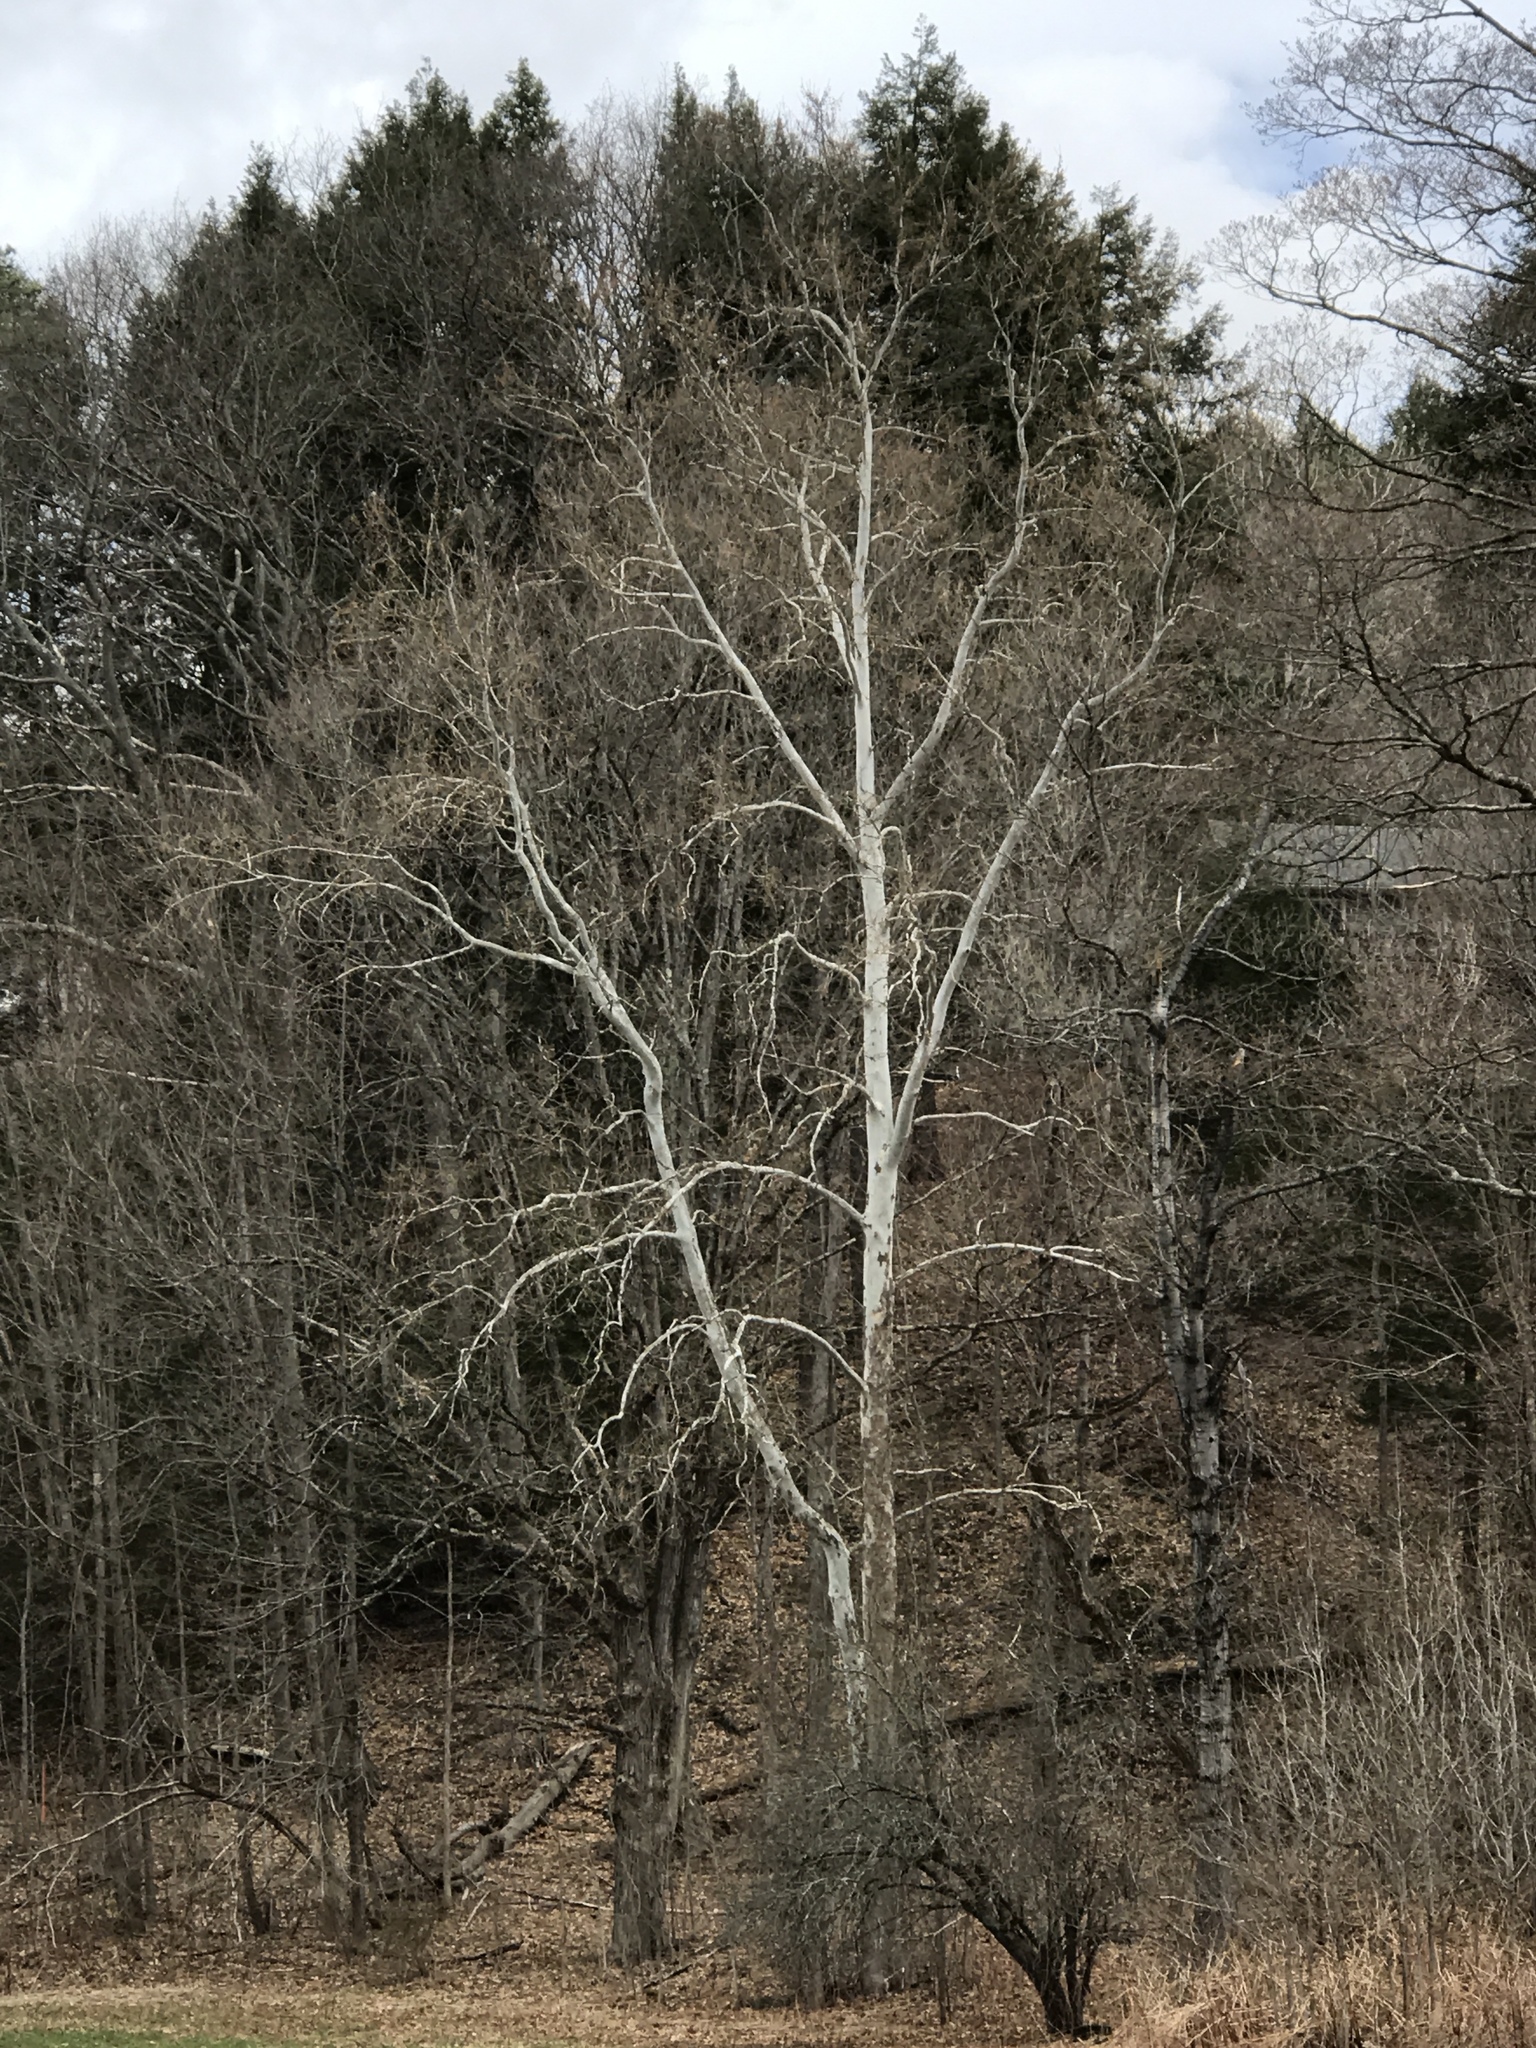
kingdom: Plantae
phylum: Tracheophyta
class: Magnoliopsida
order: Proteales
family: Platanaceae
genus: Platanus
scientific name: Platanus occidentalis
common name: American sycamore
